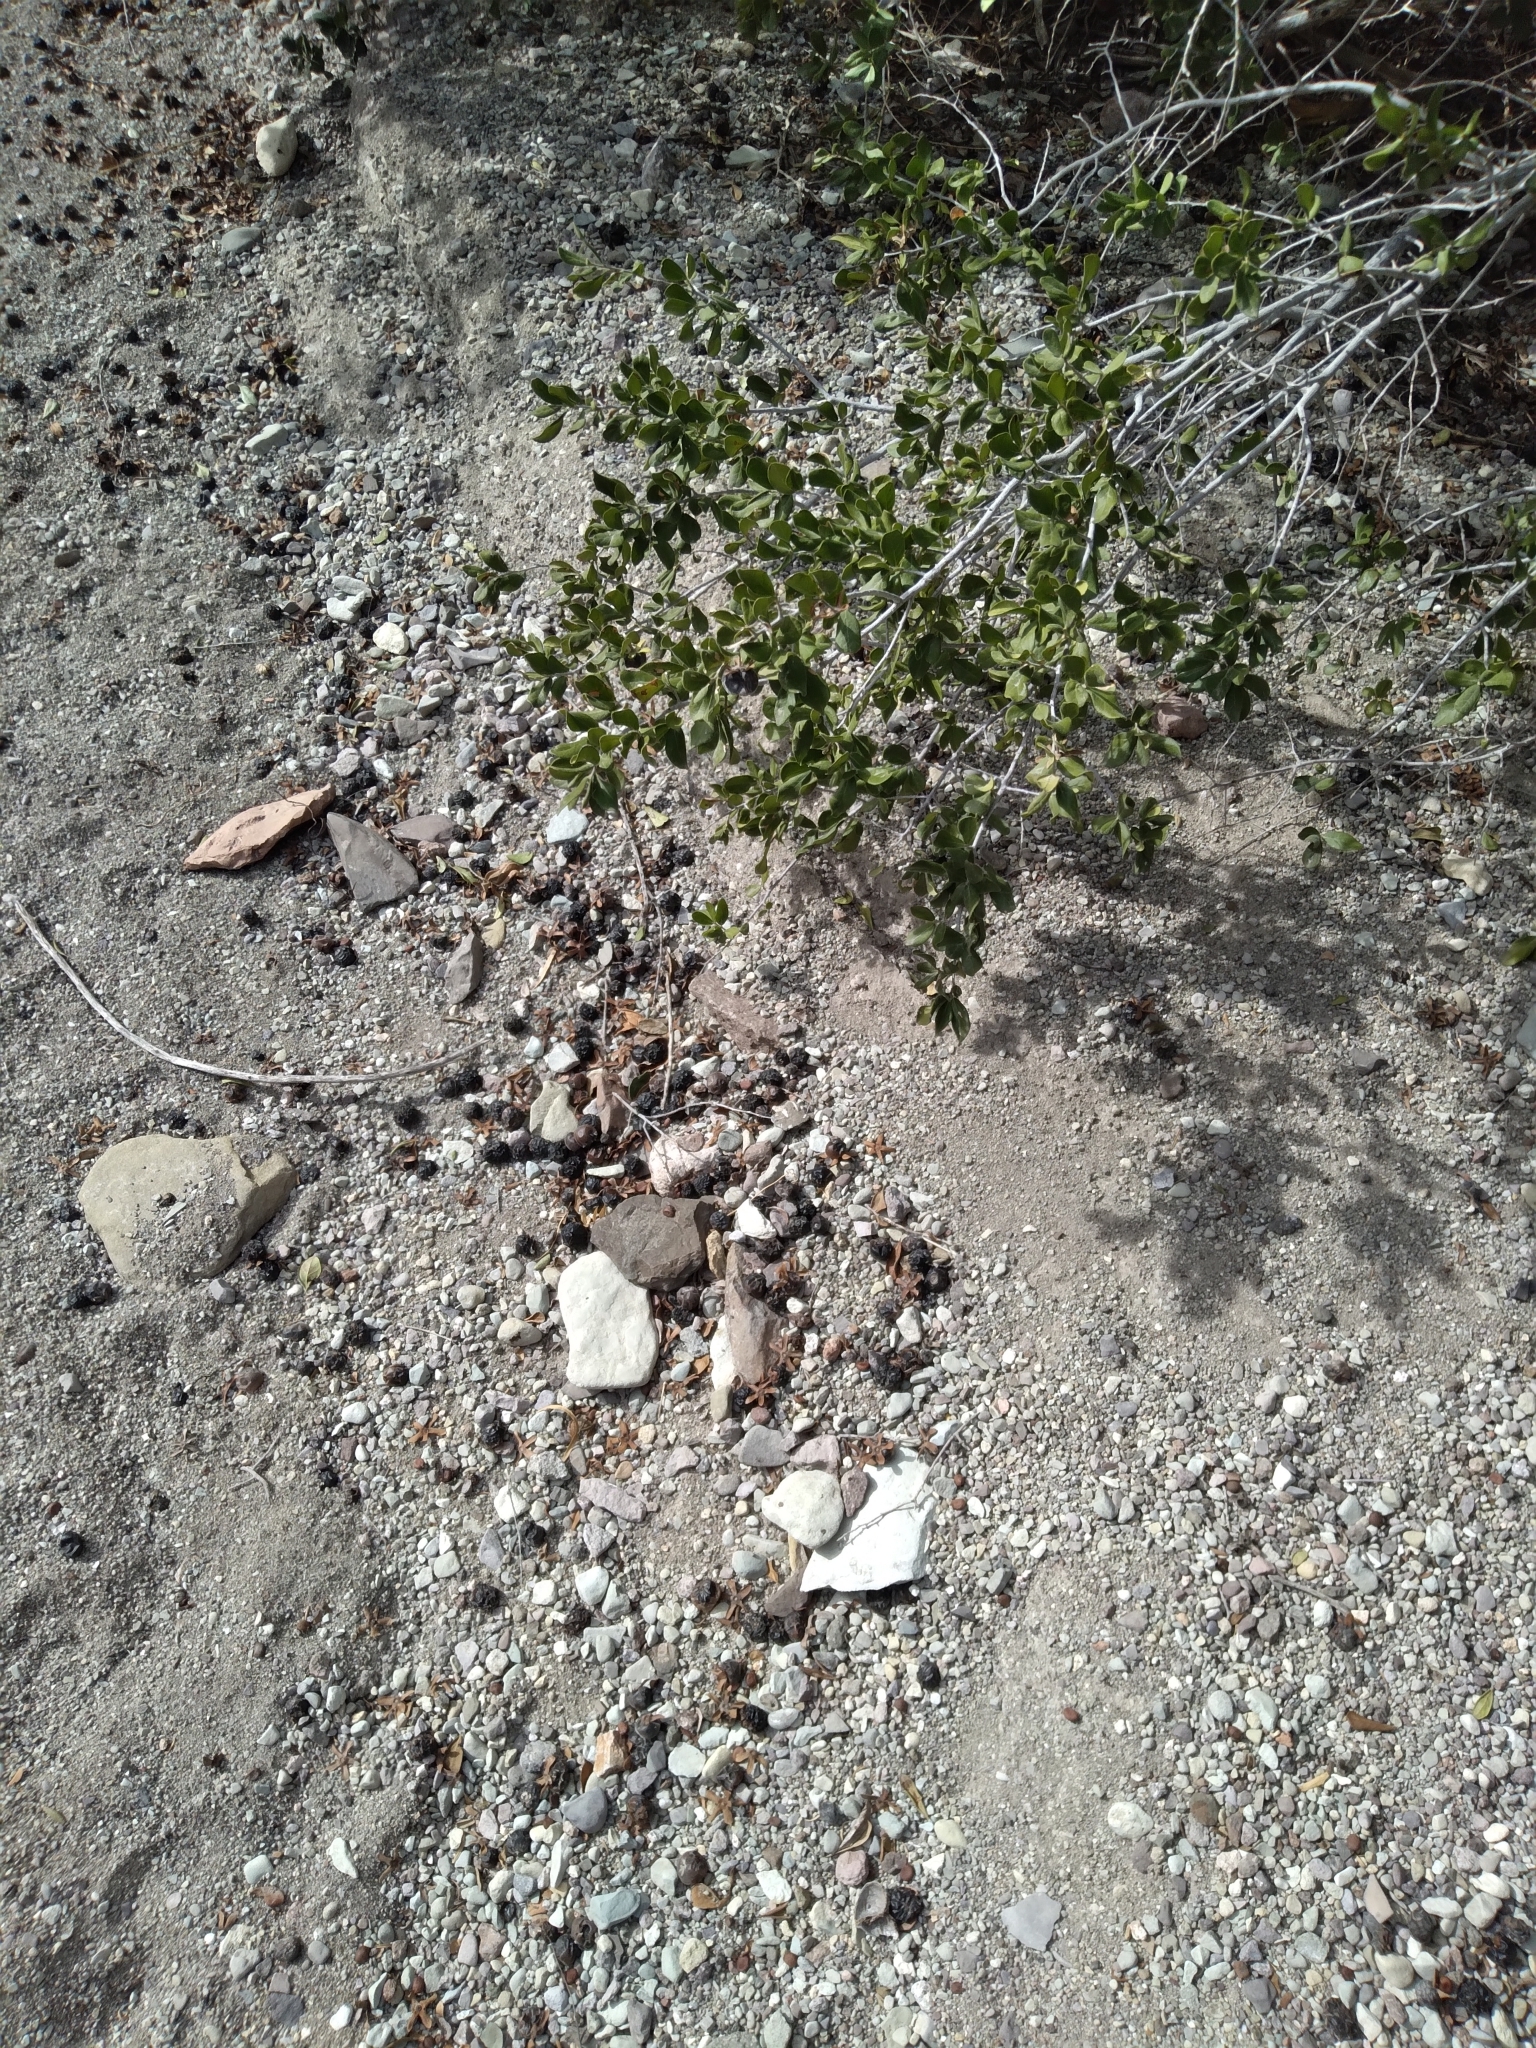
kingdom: Plantae
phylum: Tracheophyta
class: Magnoliopsida
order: Ericales
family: Ebenaceae
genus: Diospyros
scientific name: Diospyros texana
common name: Texas persimmon
